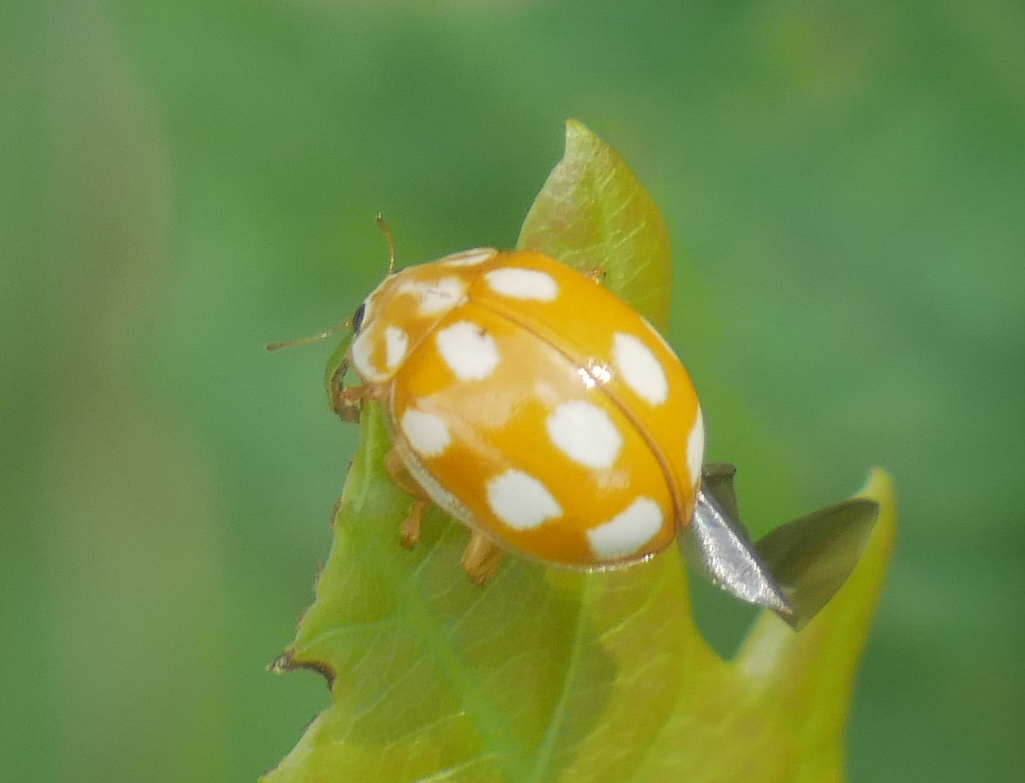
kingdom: Animalia
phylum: Arthropoda
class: Insecta
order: Coleoptera
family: Coccinellidae
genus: Calvia
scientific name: Calvia decemguttata
